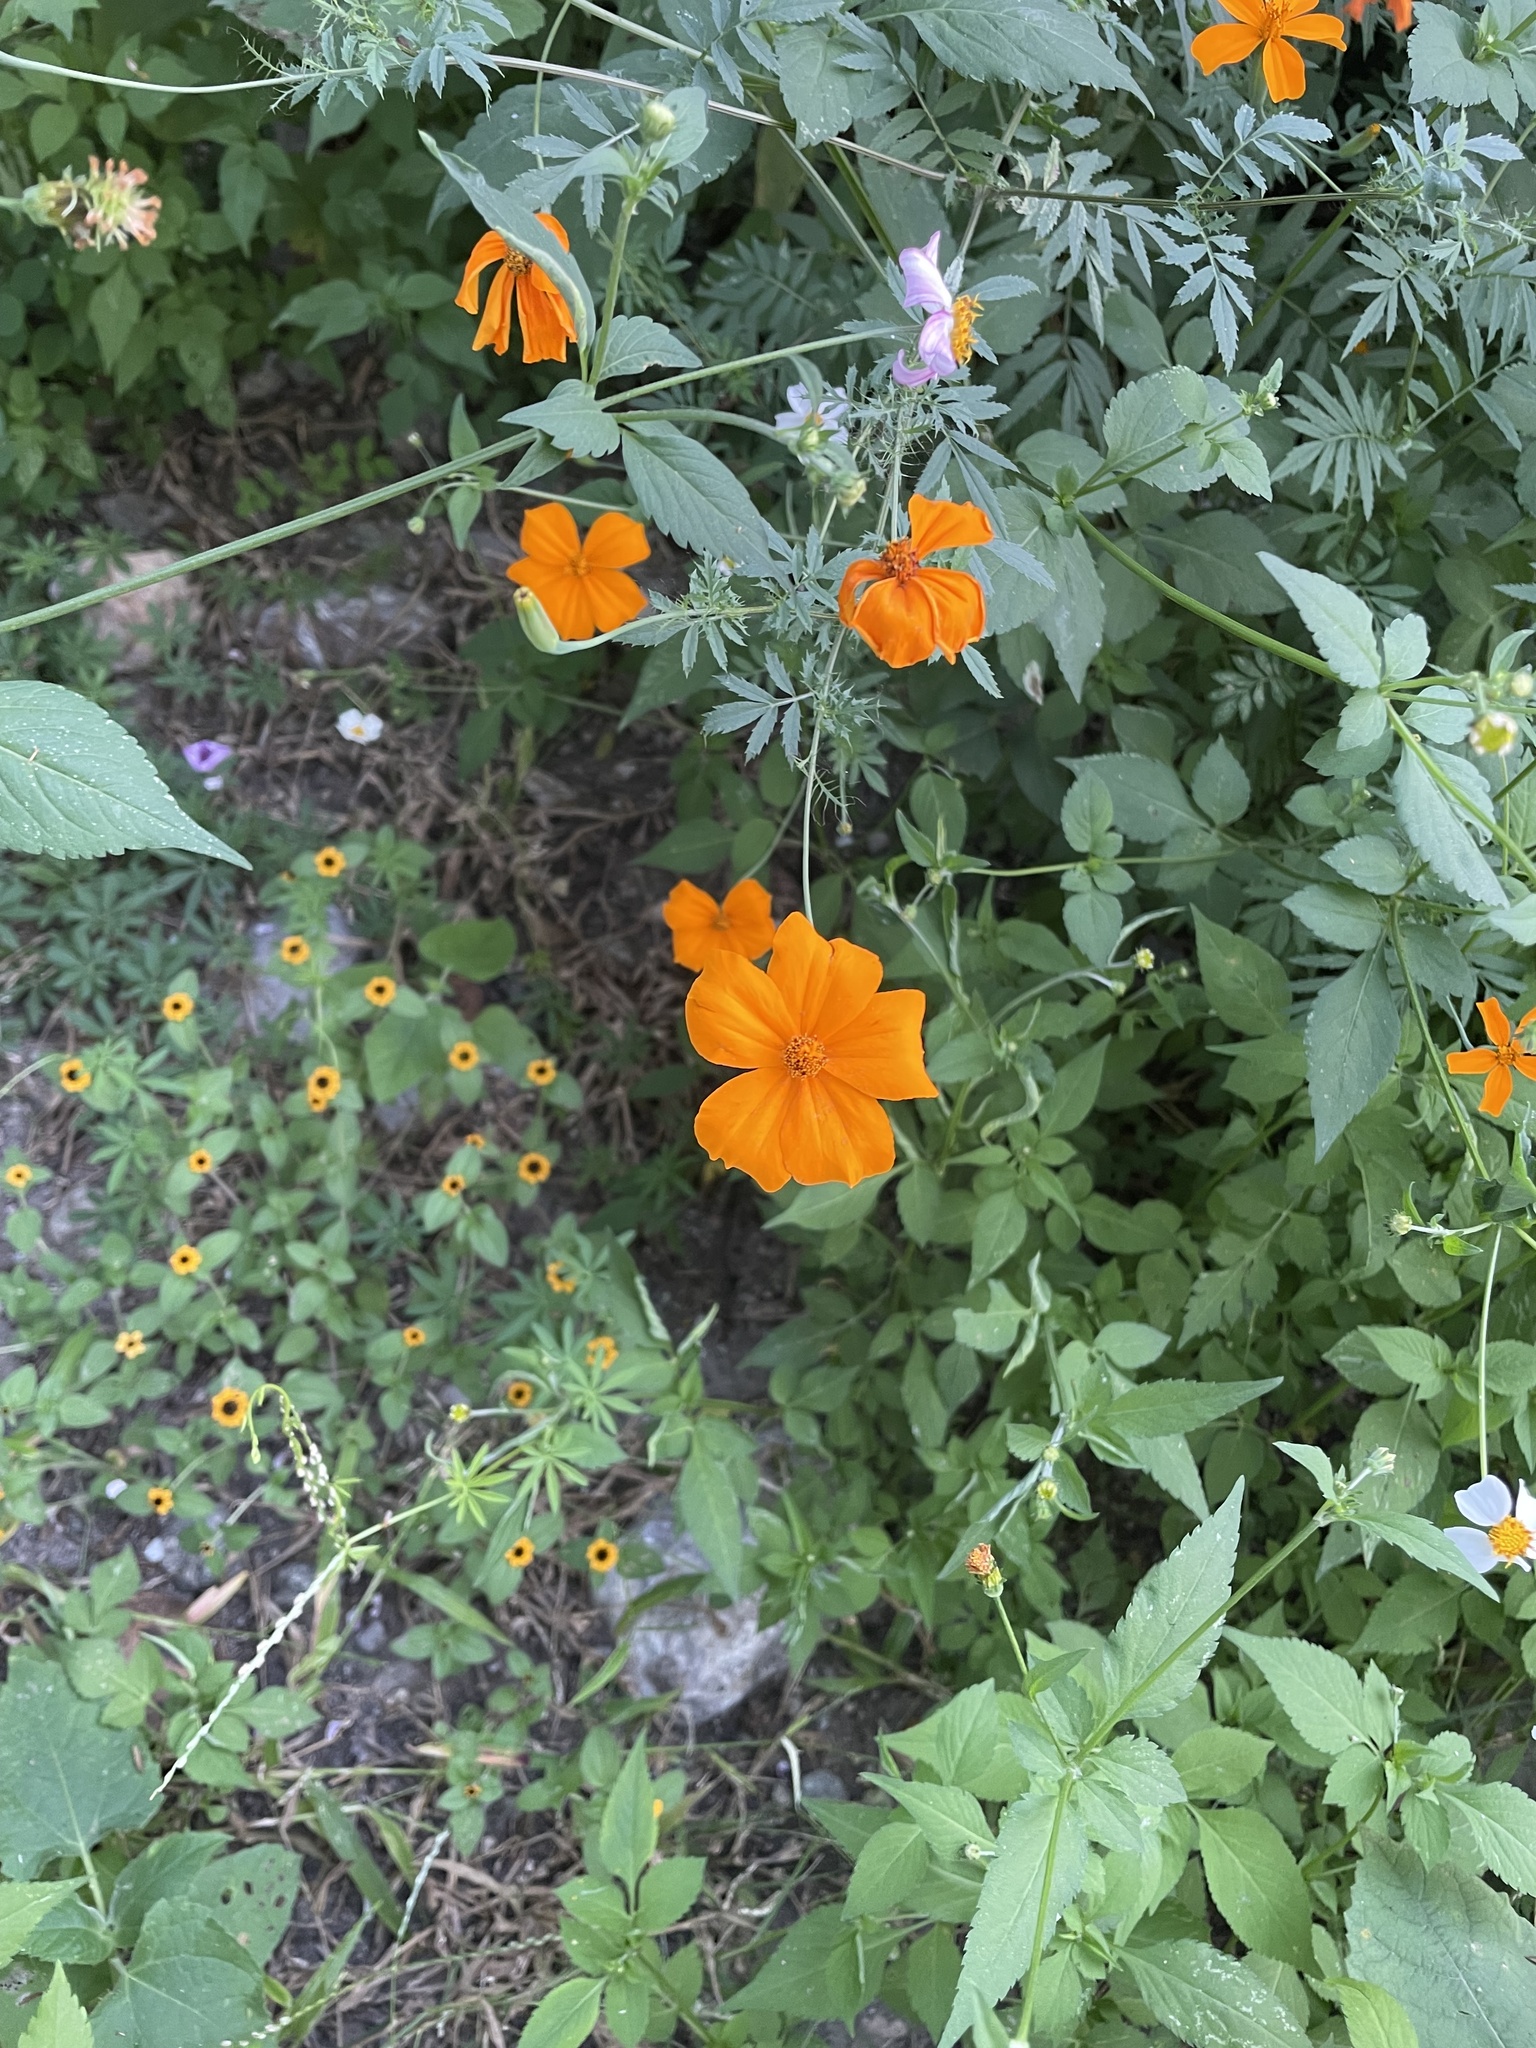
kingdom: Plantae
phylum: Tracheophyta
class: Magnoliopsida
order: Asterales
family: Asteraceae
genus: Tagetes
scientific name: Tagetes erecta
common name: African marigold
